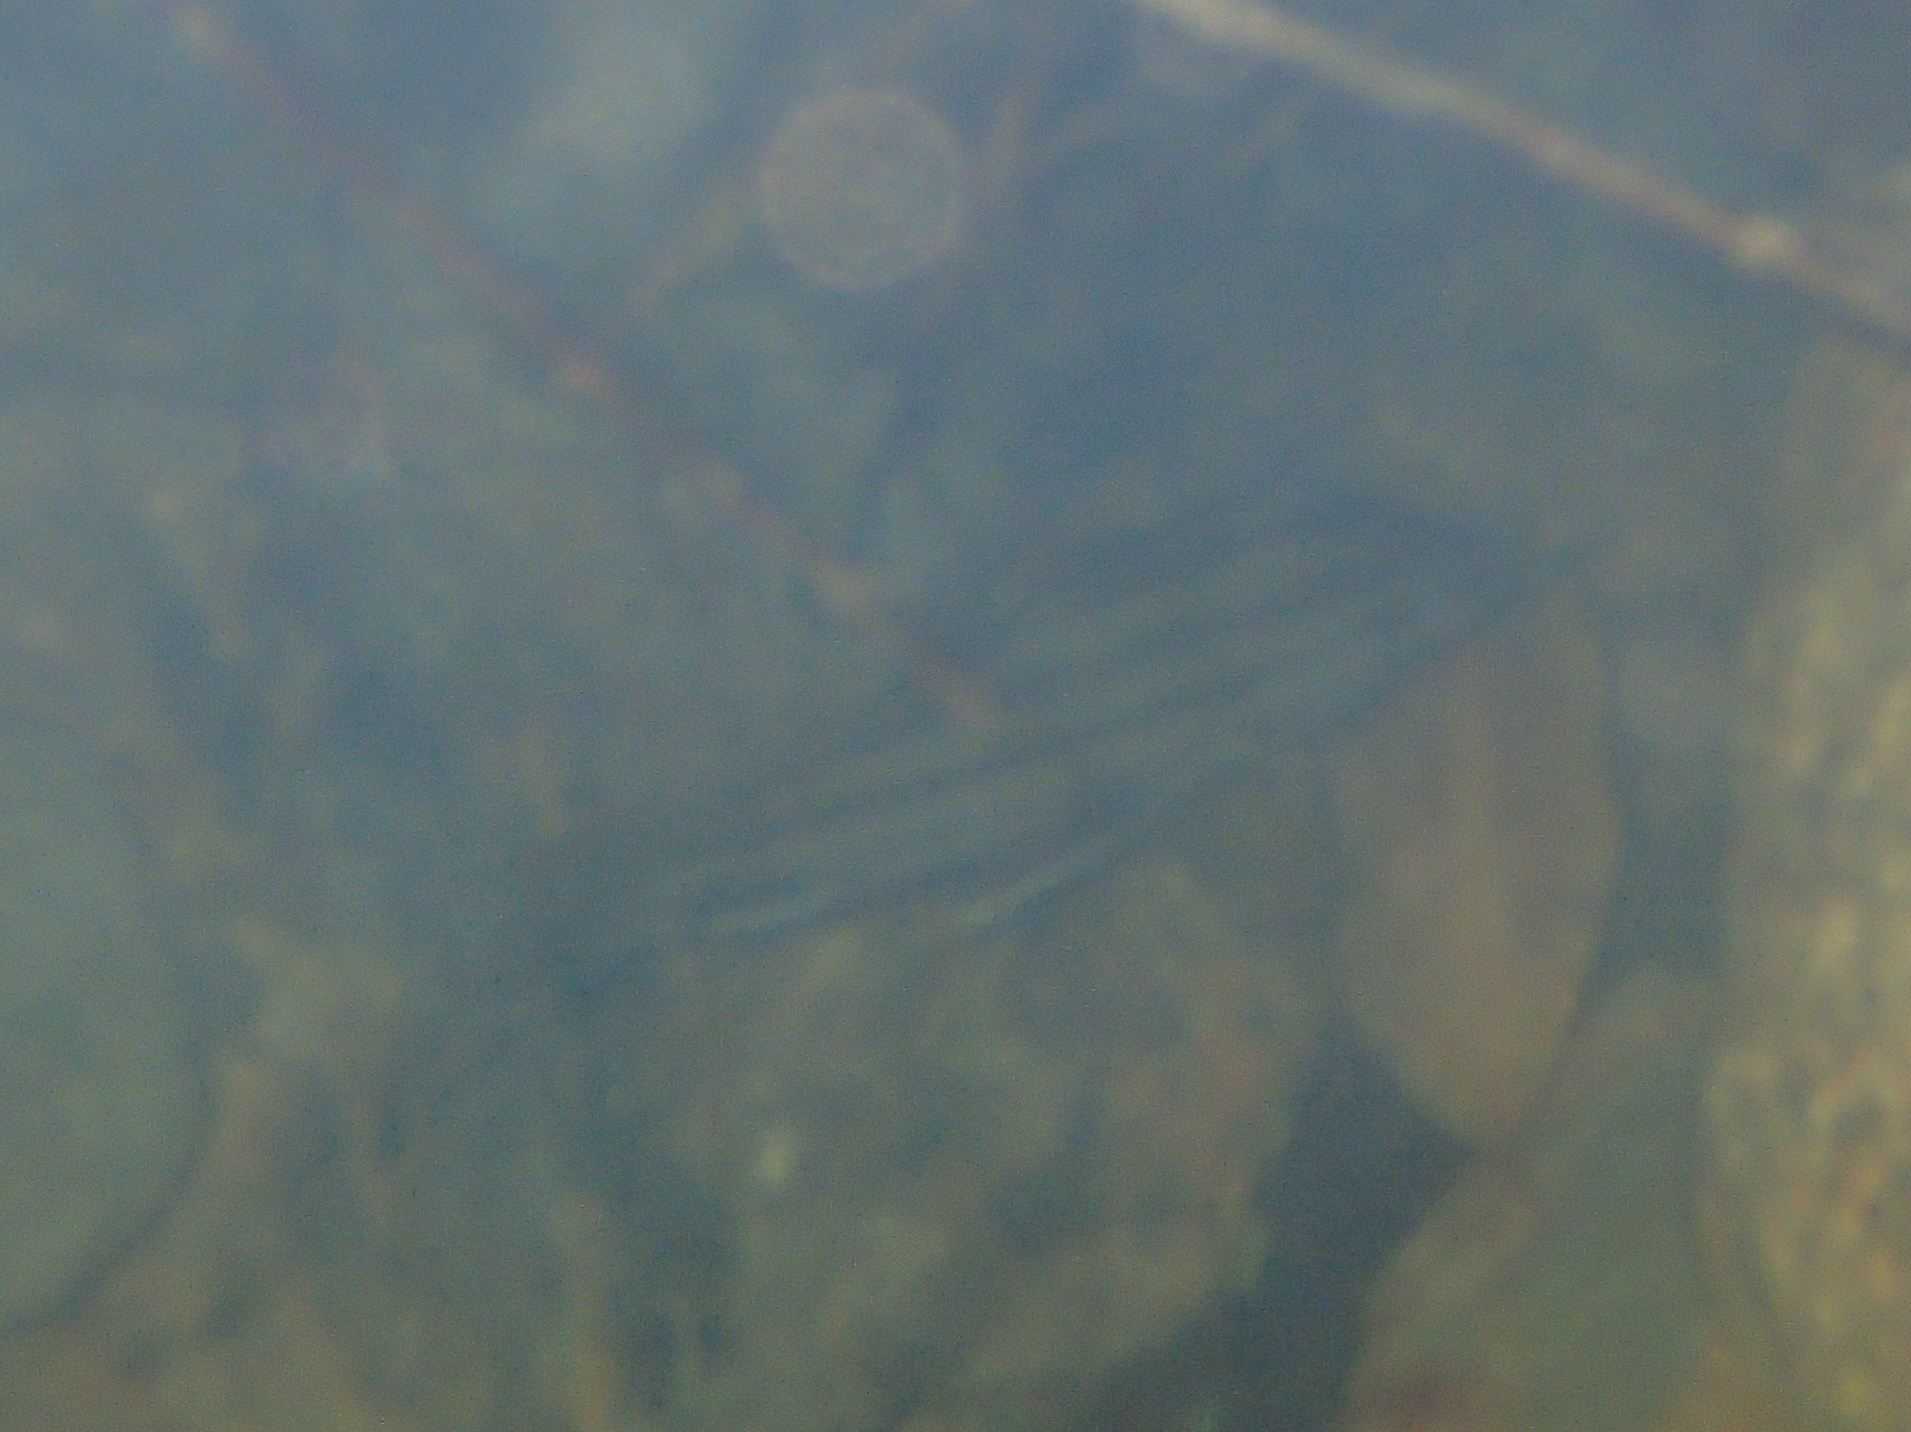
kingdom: Animalia
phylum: Chordata
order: Perciformes
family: Terapontidae
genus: Mesopristes
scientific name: Mesopristes argenteus
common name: Silver grunter
